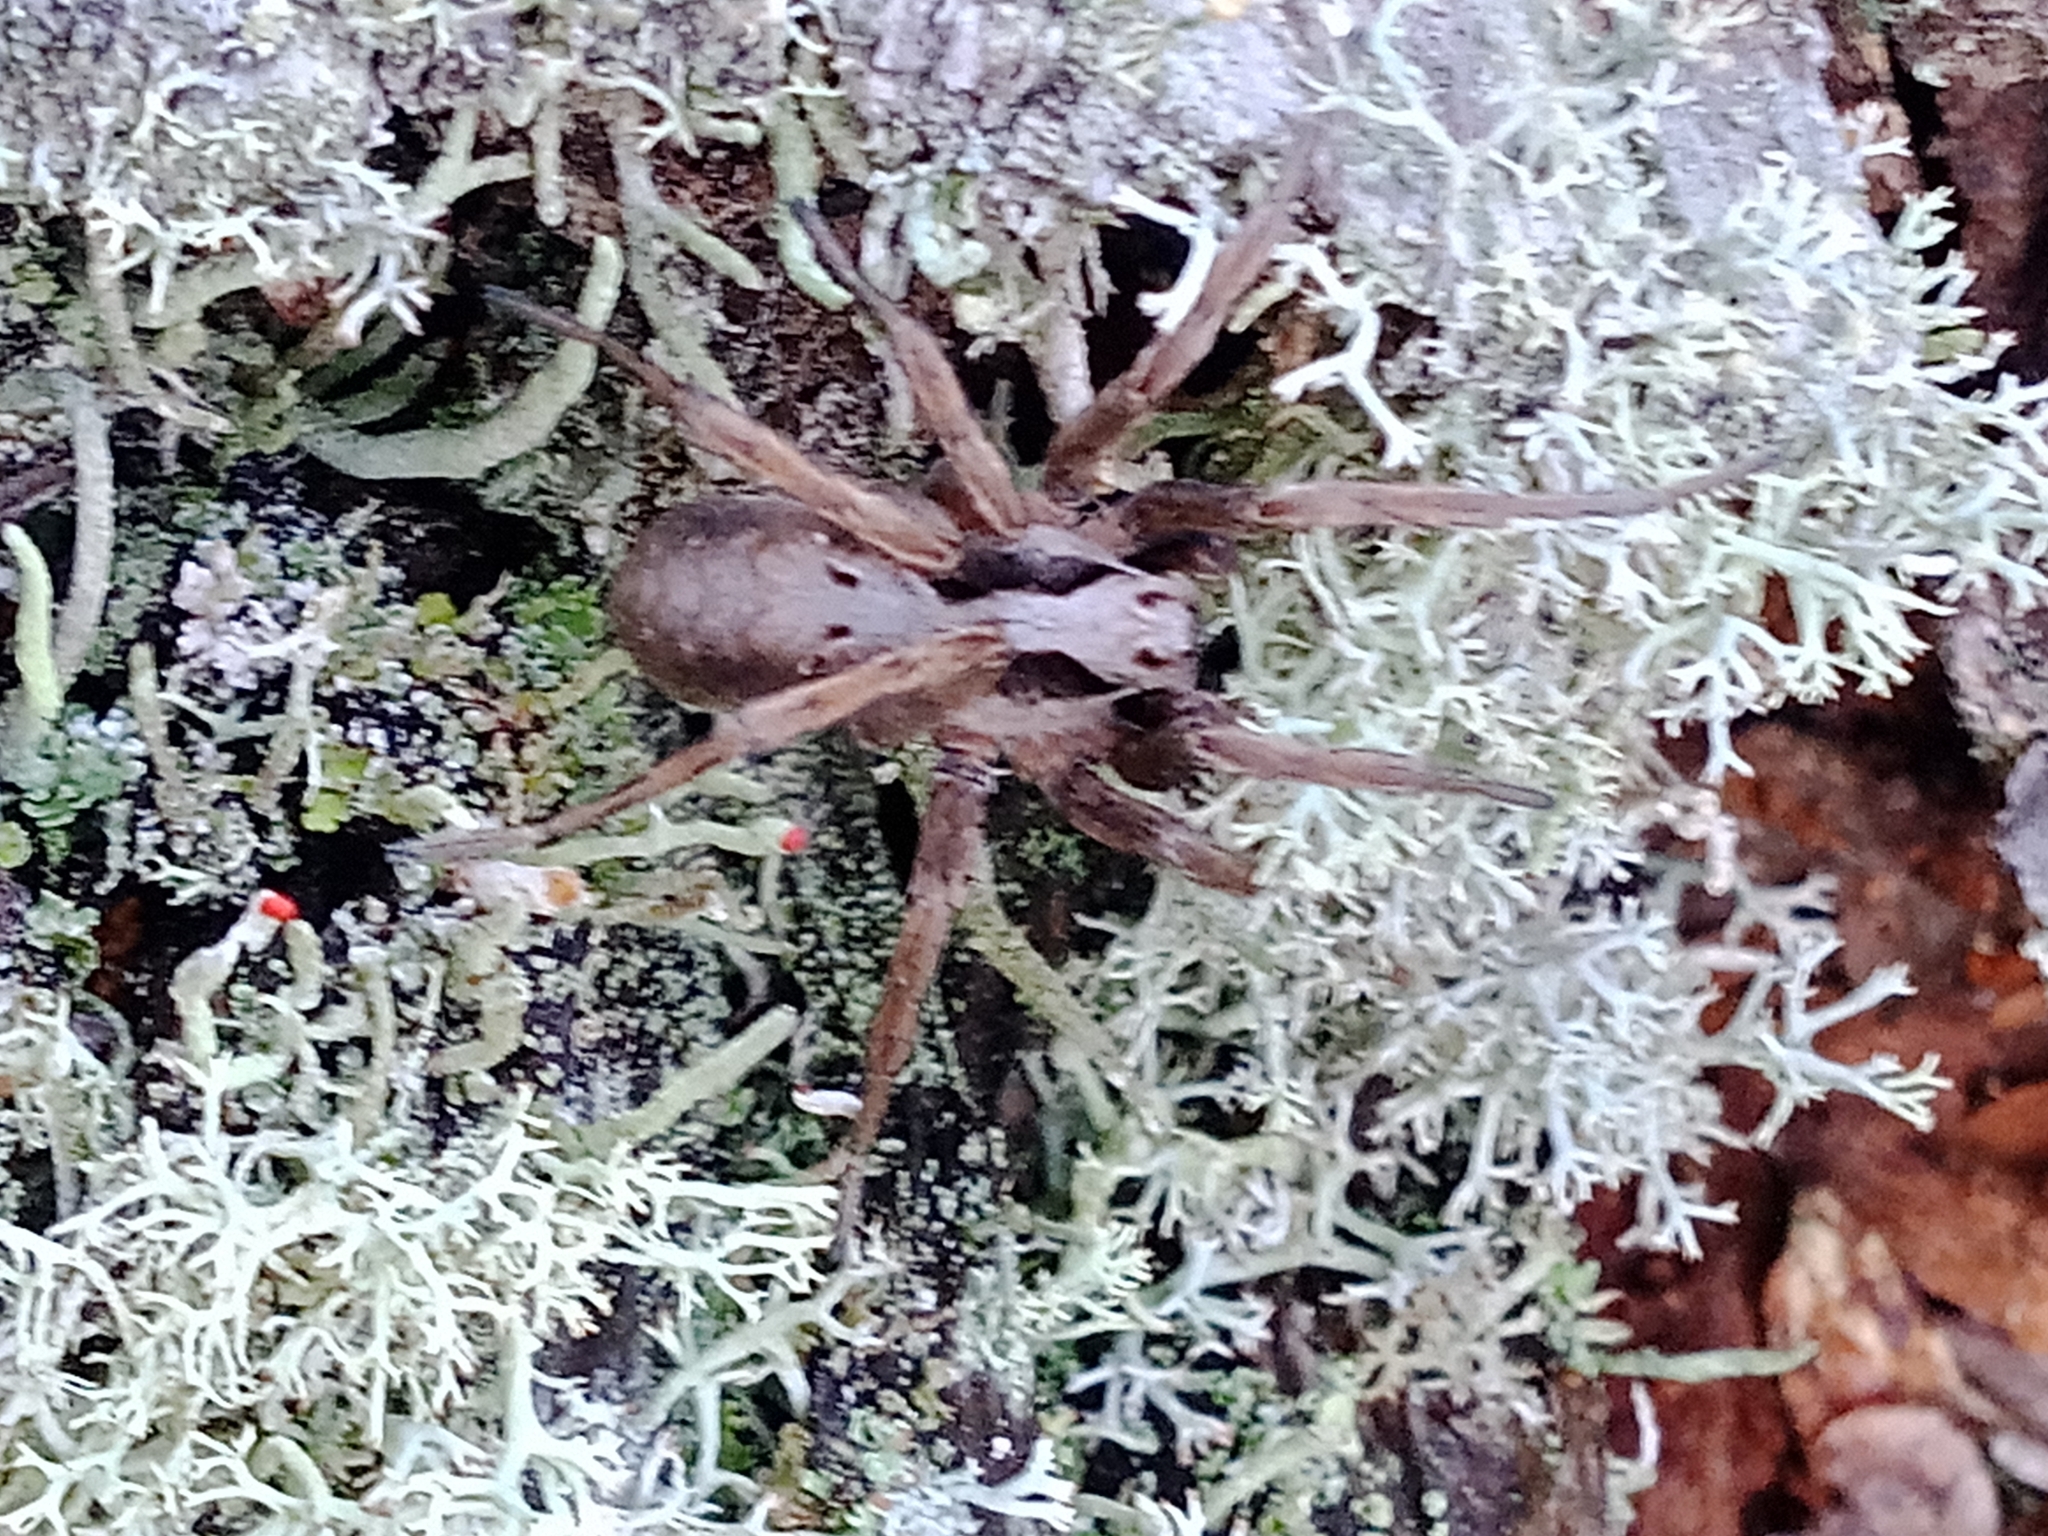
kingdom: Animalia
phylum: Arthropoda
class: Arachnida
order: Araneae
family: Lycosidae
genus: Alopecosa
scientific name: Alopecosa inquilina
